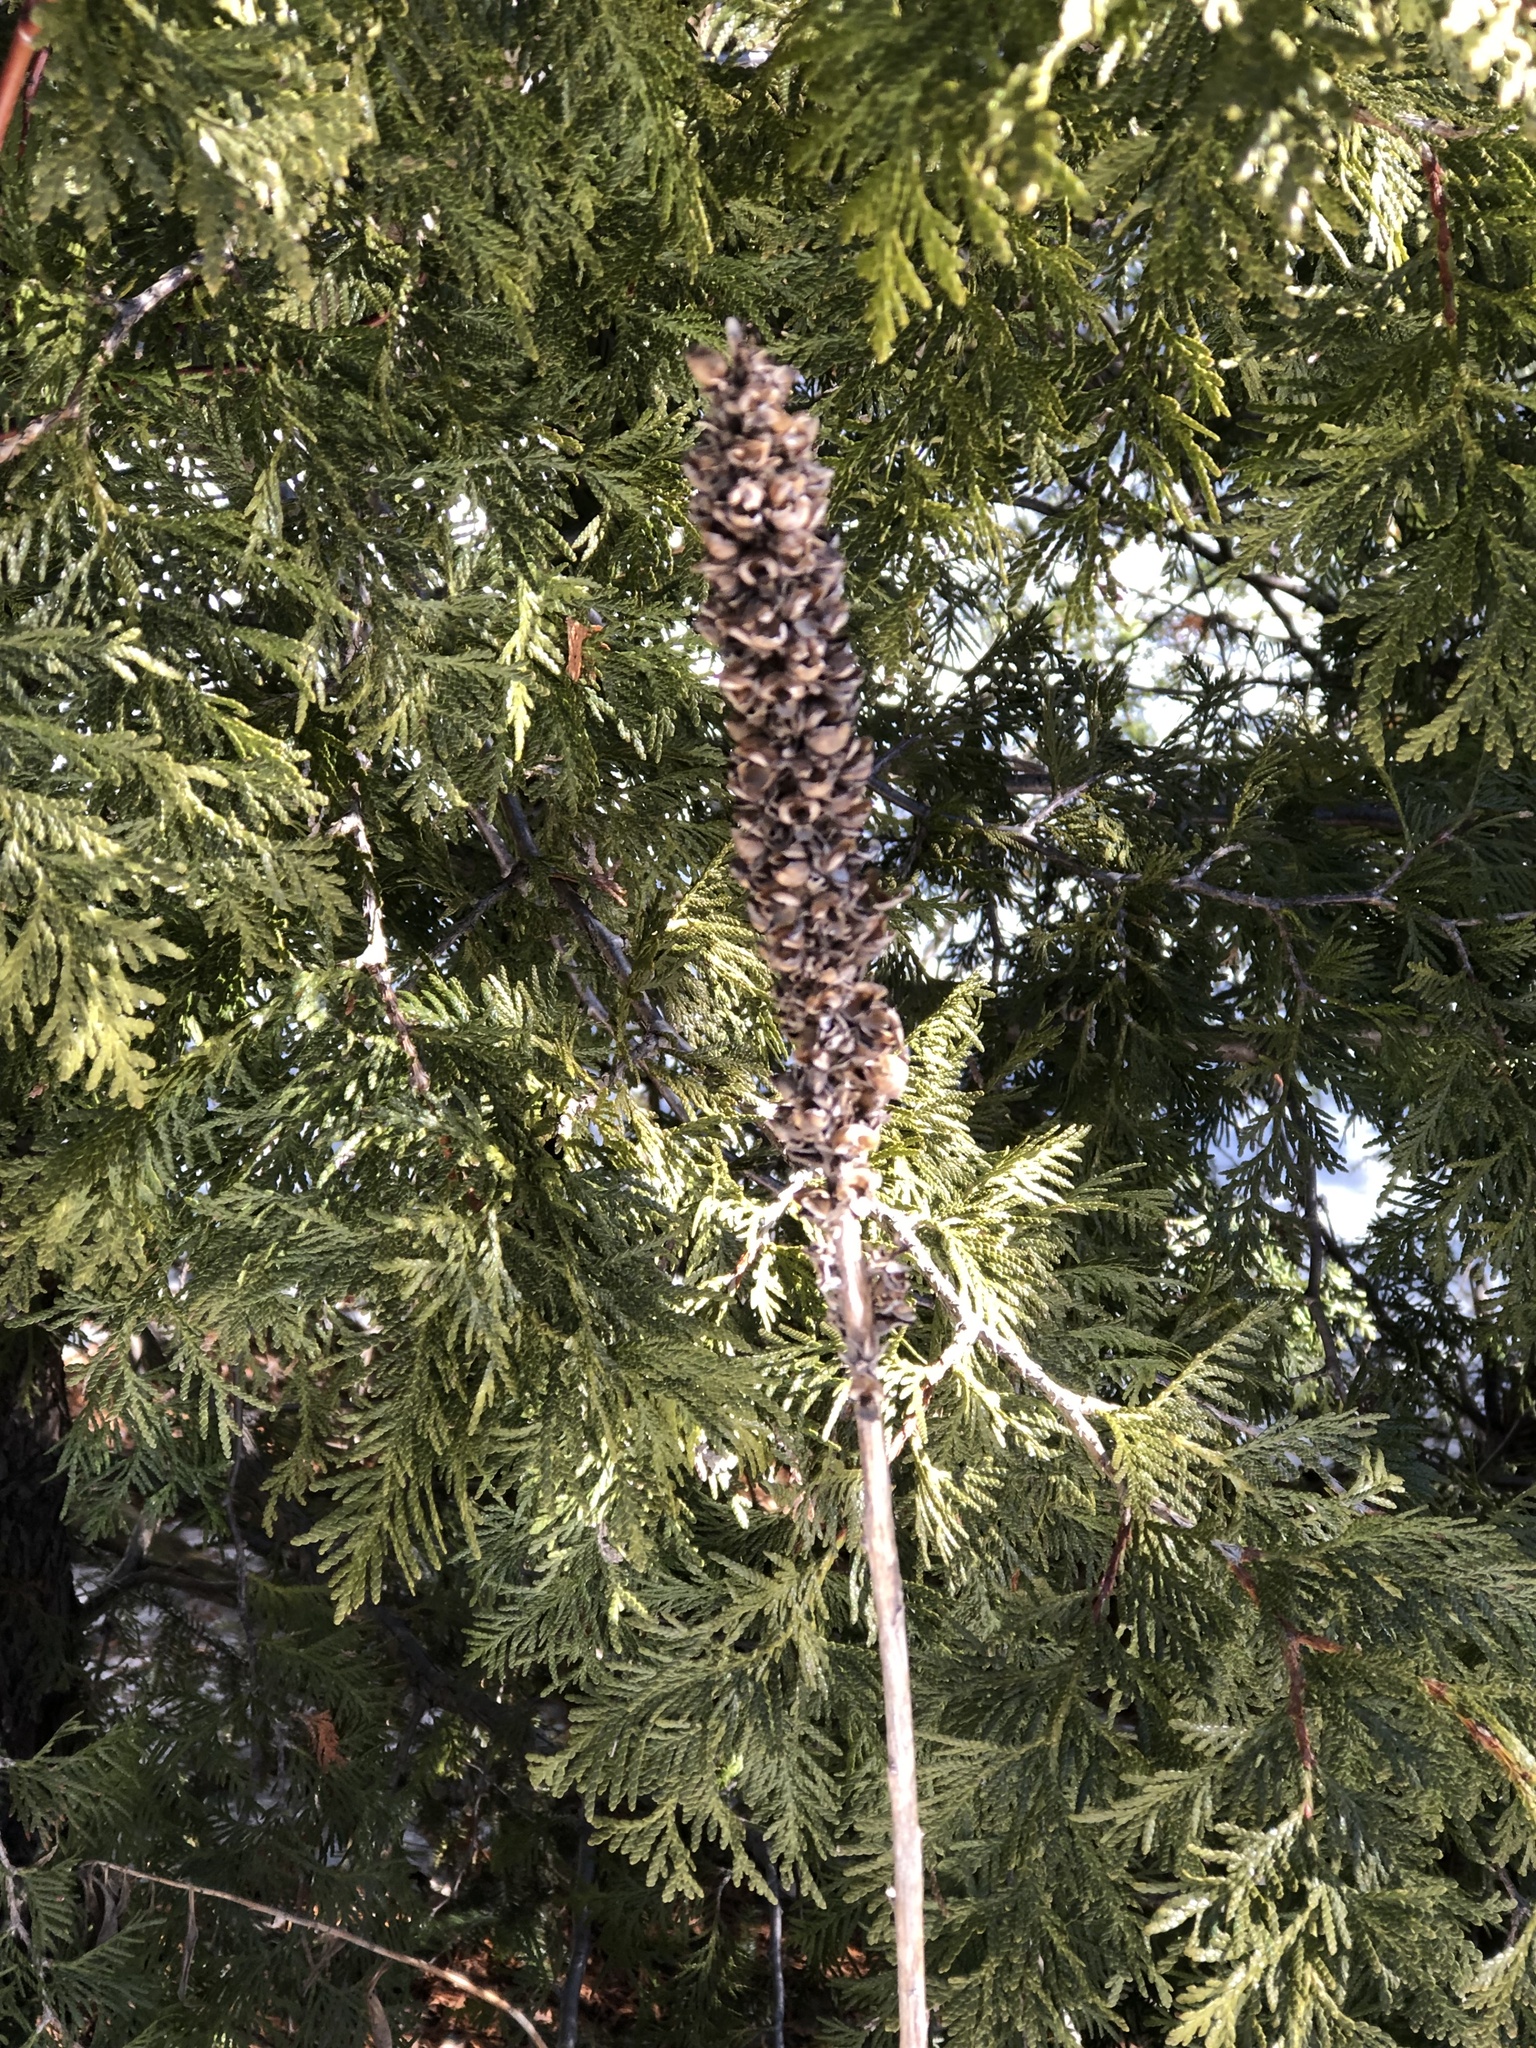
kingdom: Plantae
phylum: Tracheophyta
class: Magnoliopsida
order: Lamiales
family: Scrophulariaceae
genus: Verbascum
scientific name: Verbascum thapsus
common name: Common mullein
